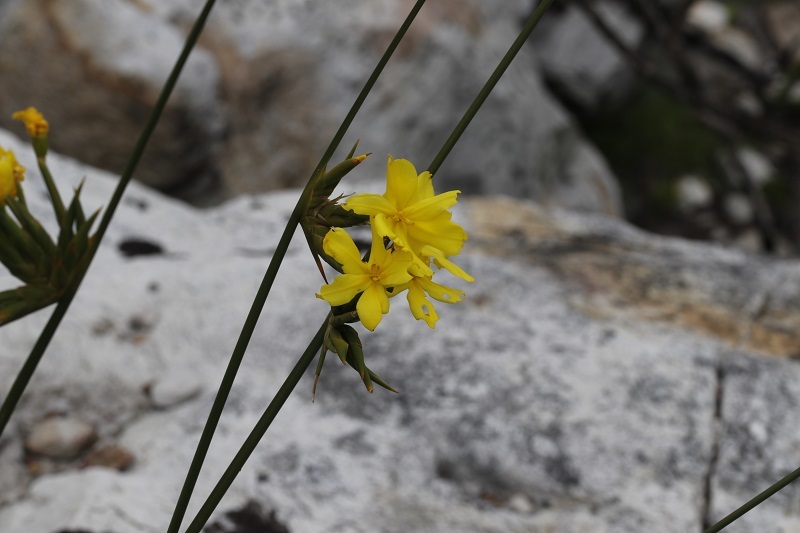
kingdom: Plantae
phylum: Tracheophyta
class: Liliopsida
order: Asparagales
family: Iridaceae
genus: Bobartia
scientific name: Bobartia indica
